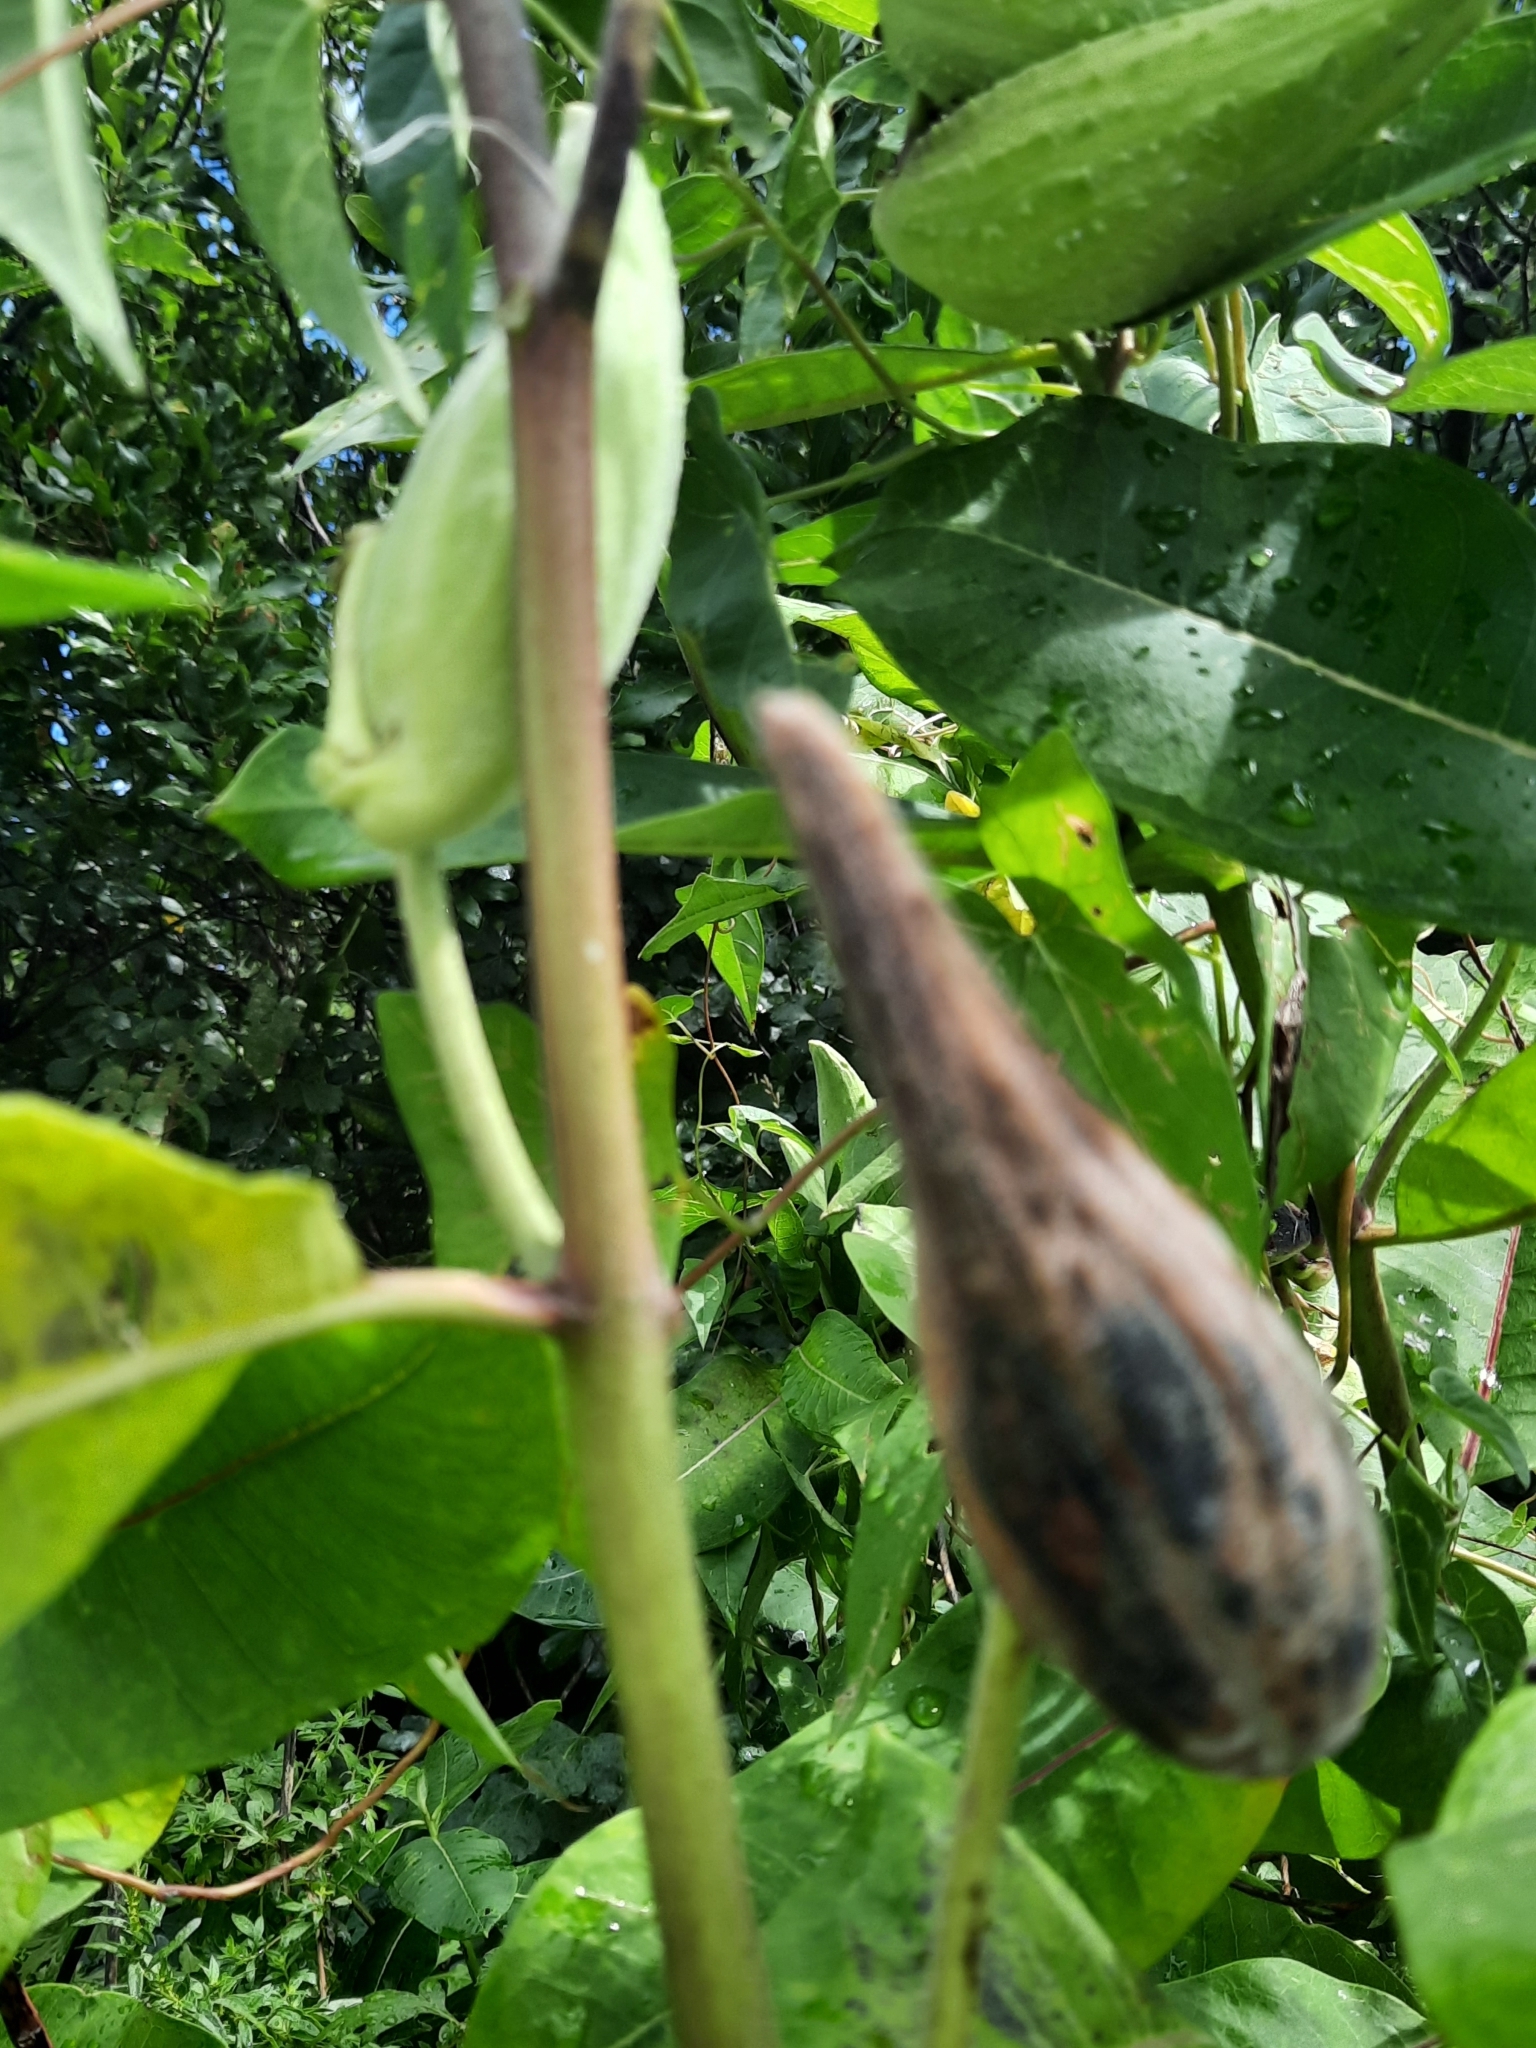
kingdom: Plantae
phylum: Tracheophyta
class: Magnoliopsida
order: Gentianales
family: Apocynaceae
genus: Asclepias
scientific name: Asclepias purpurascens
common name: Purple milkweed
